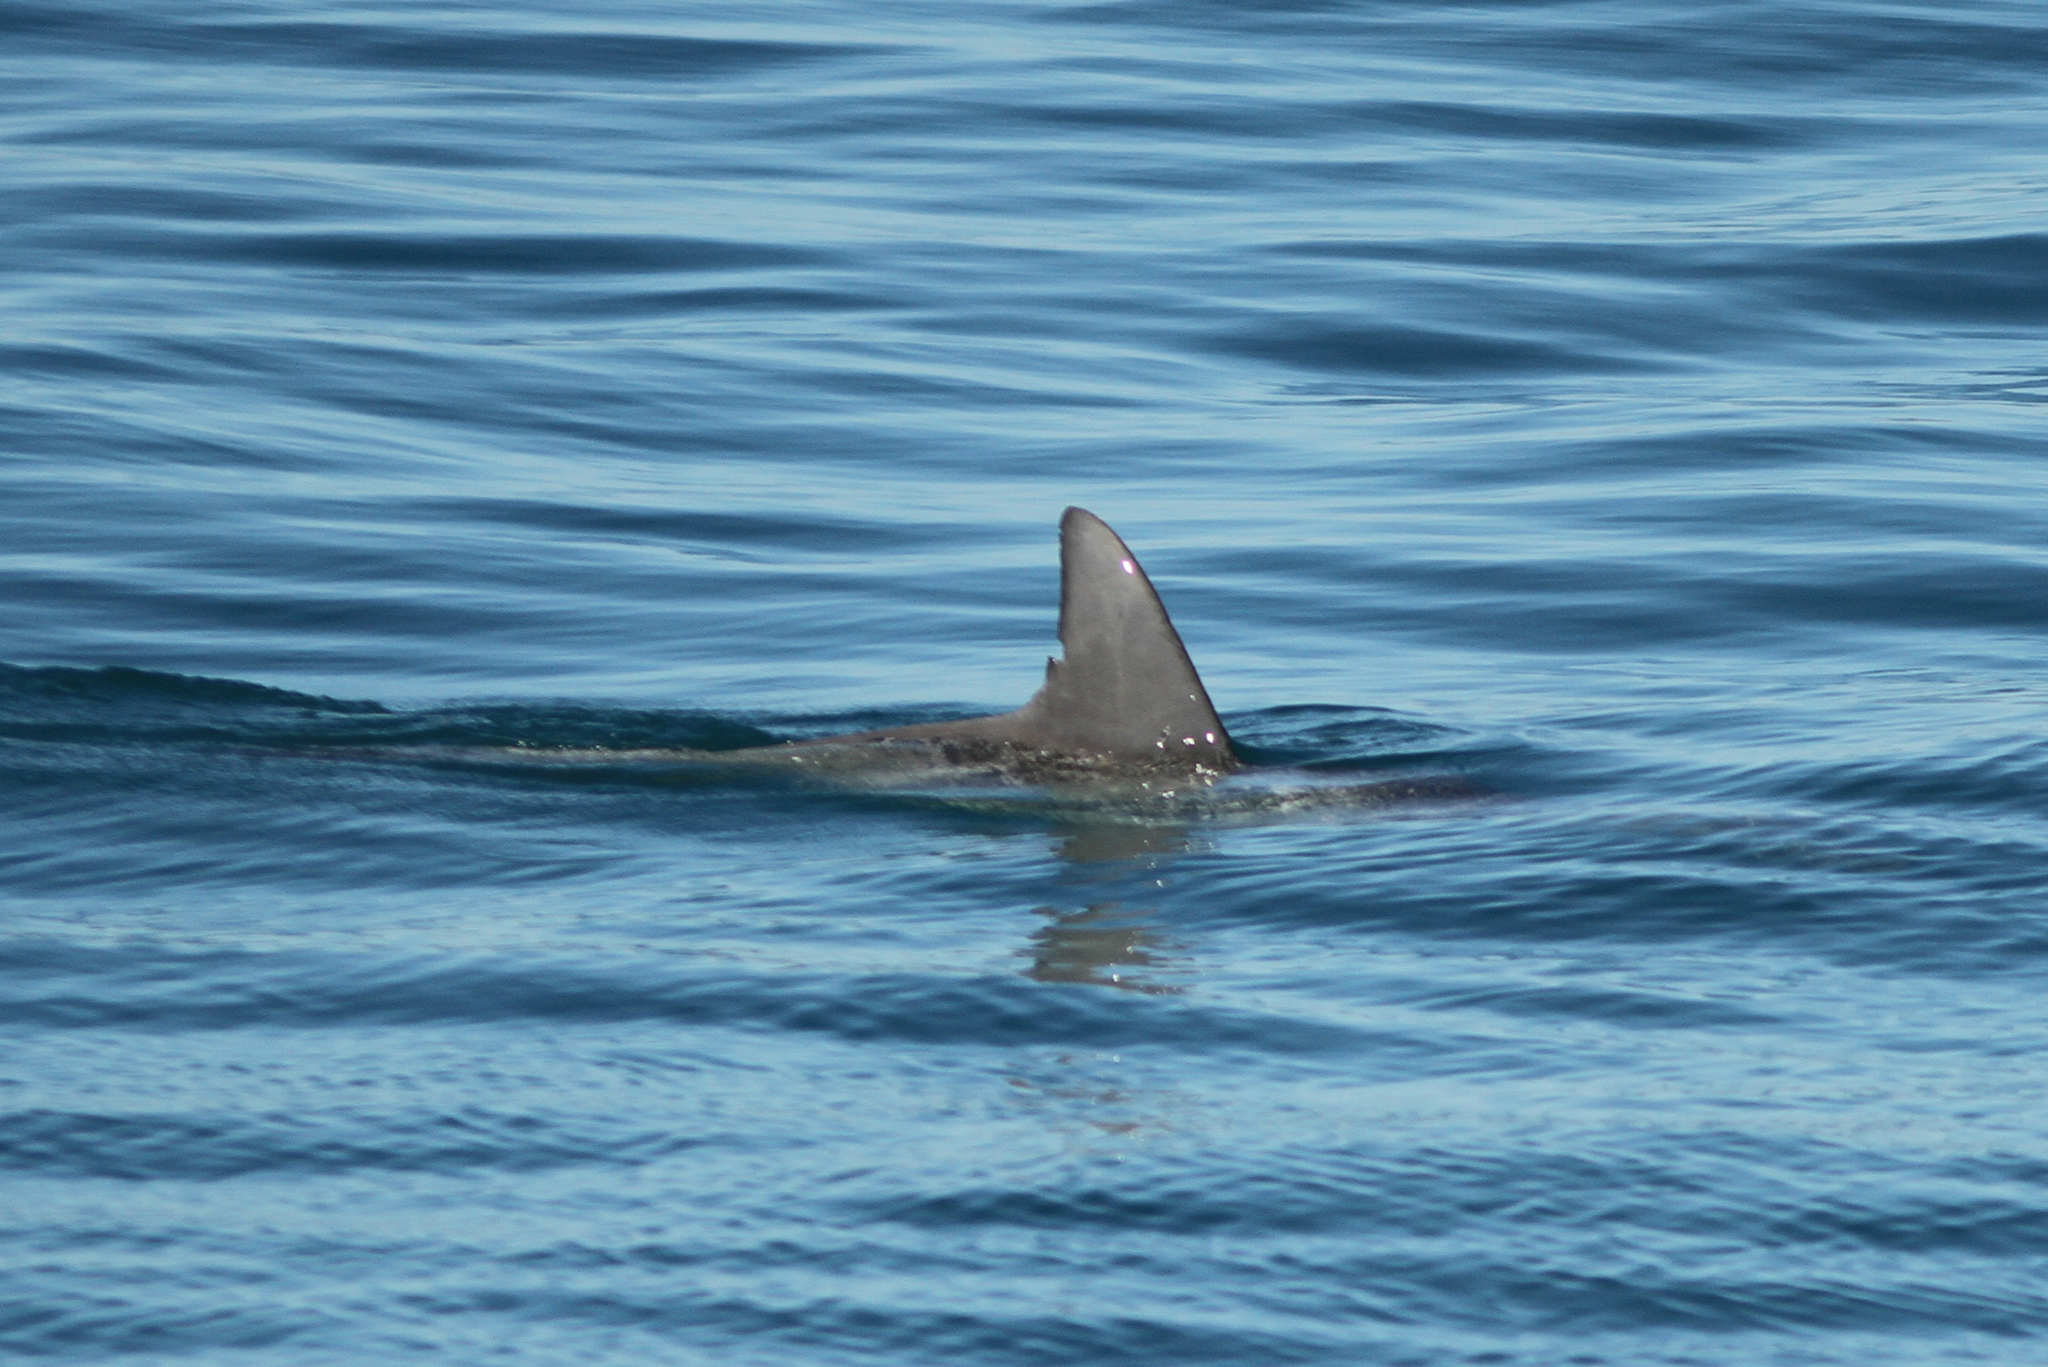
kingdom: Animalia
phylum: Chordata
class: Mammalia
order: Cetacea
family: Delphinidae
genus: Tursiops
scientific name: Tursiops truncatus
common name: Bottlenose dolphin
